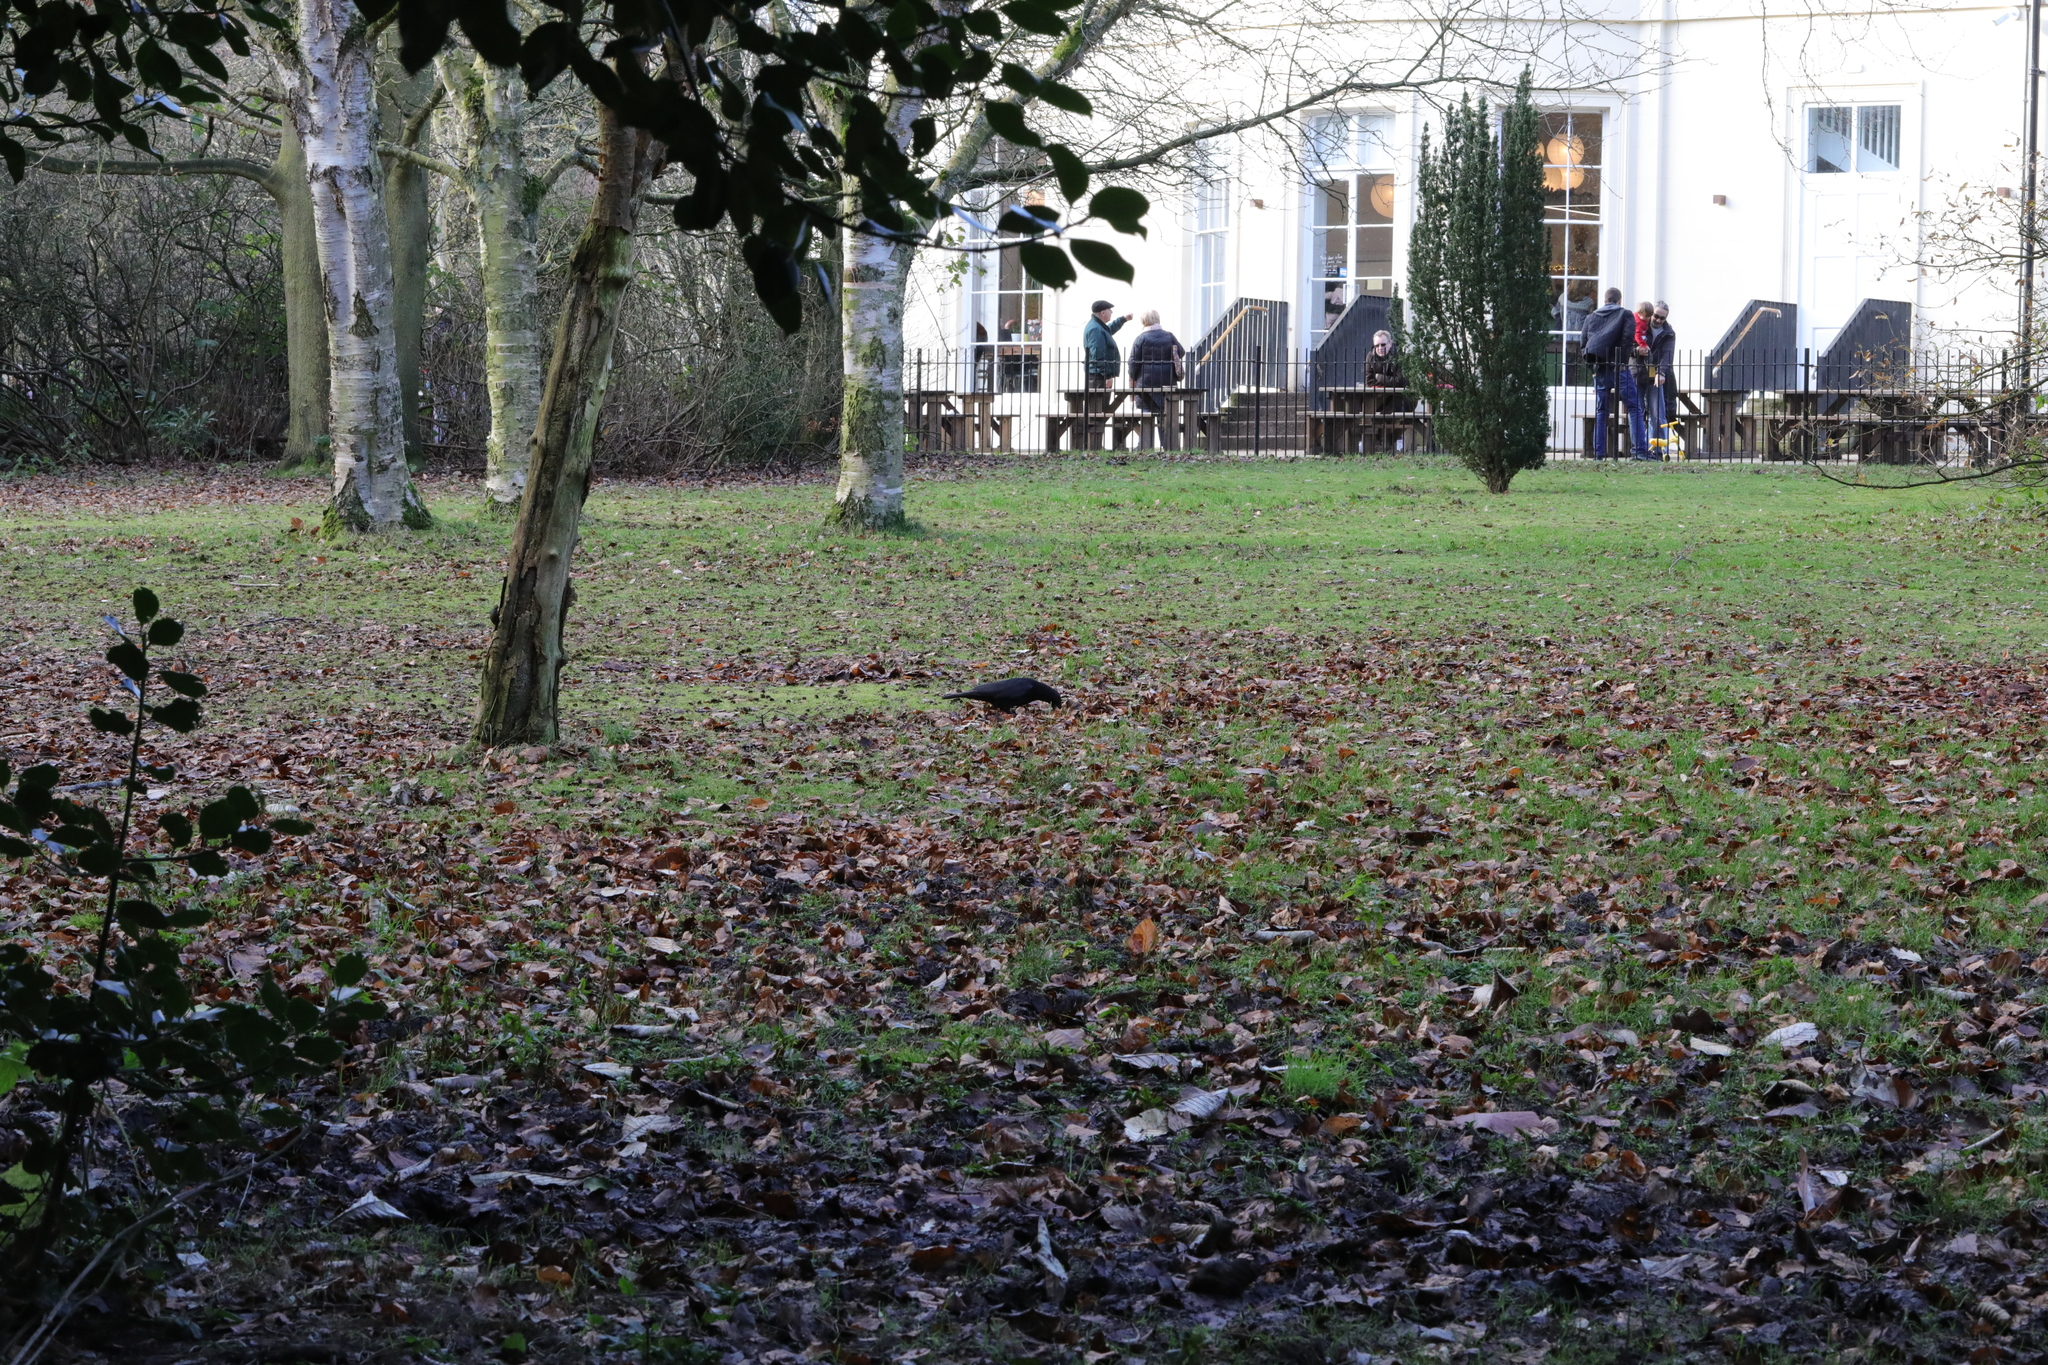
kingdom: Animalia
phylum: Chordata
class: Aves
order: Passeriformes
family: Corvidae
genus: Corvus
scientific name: Corvus corone
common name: Carrion crow
